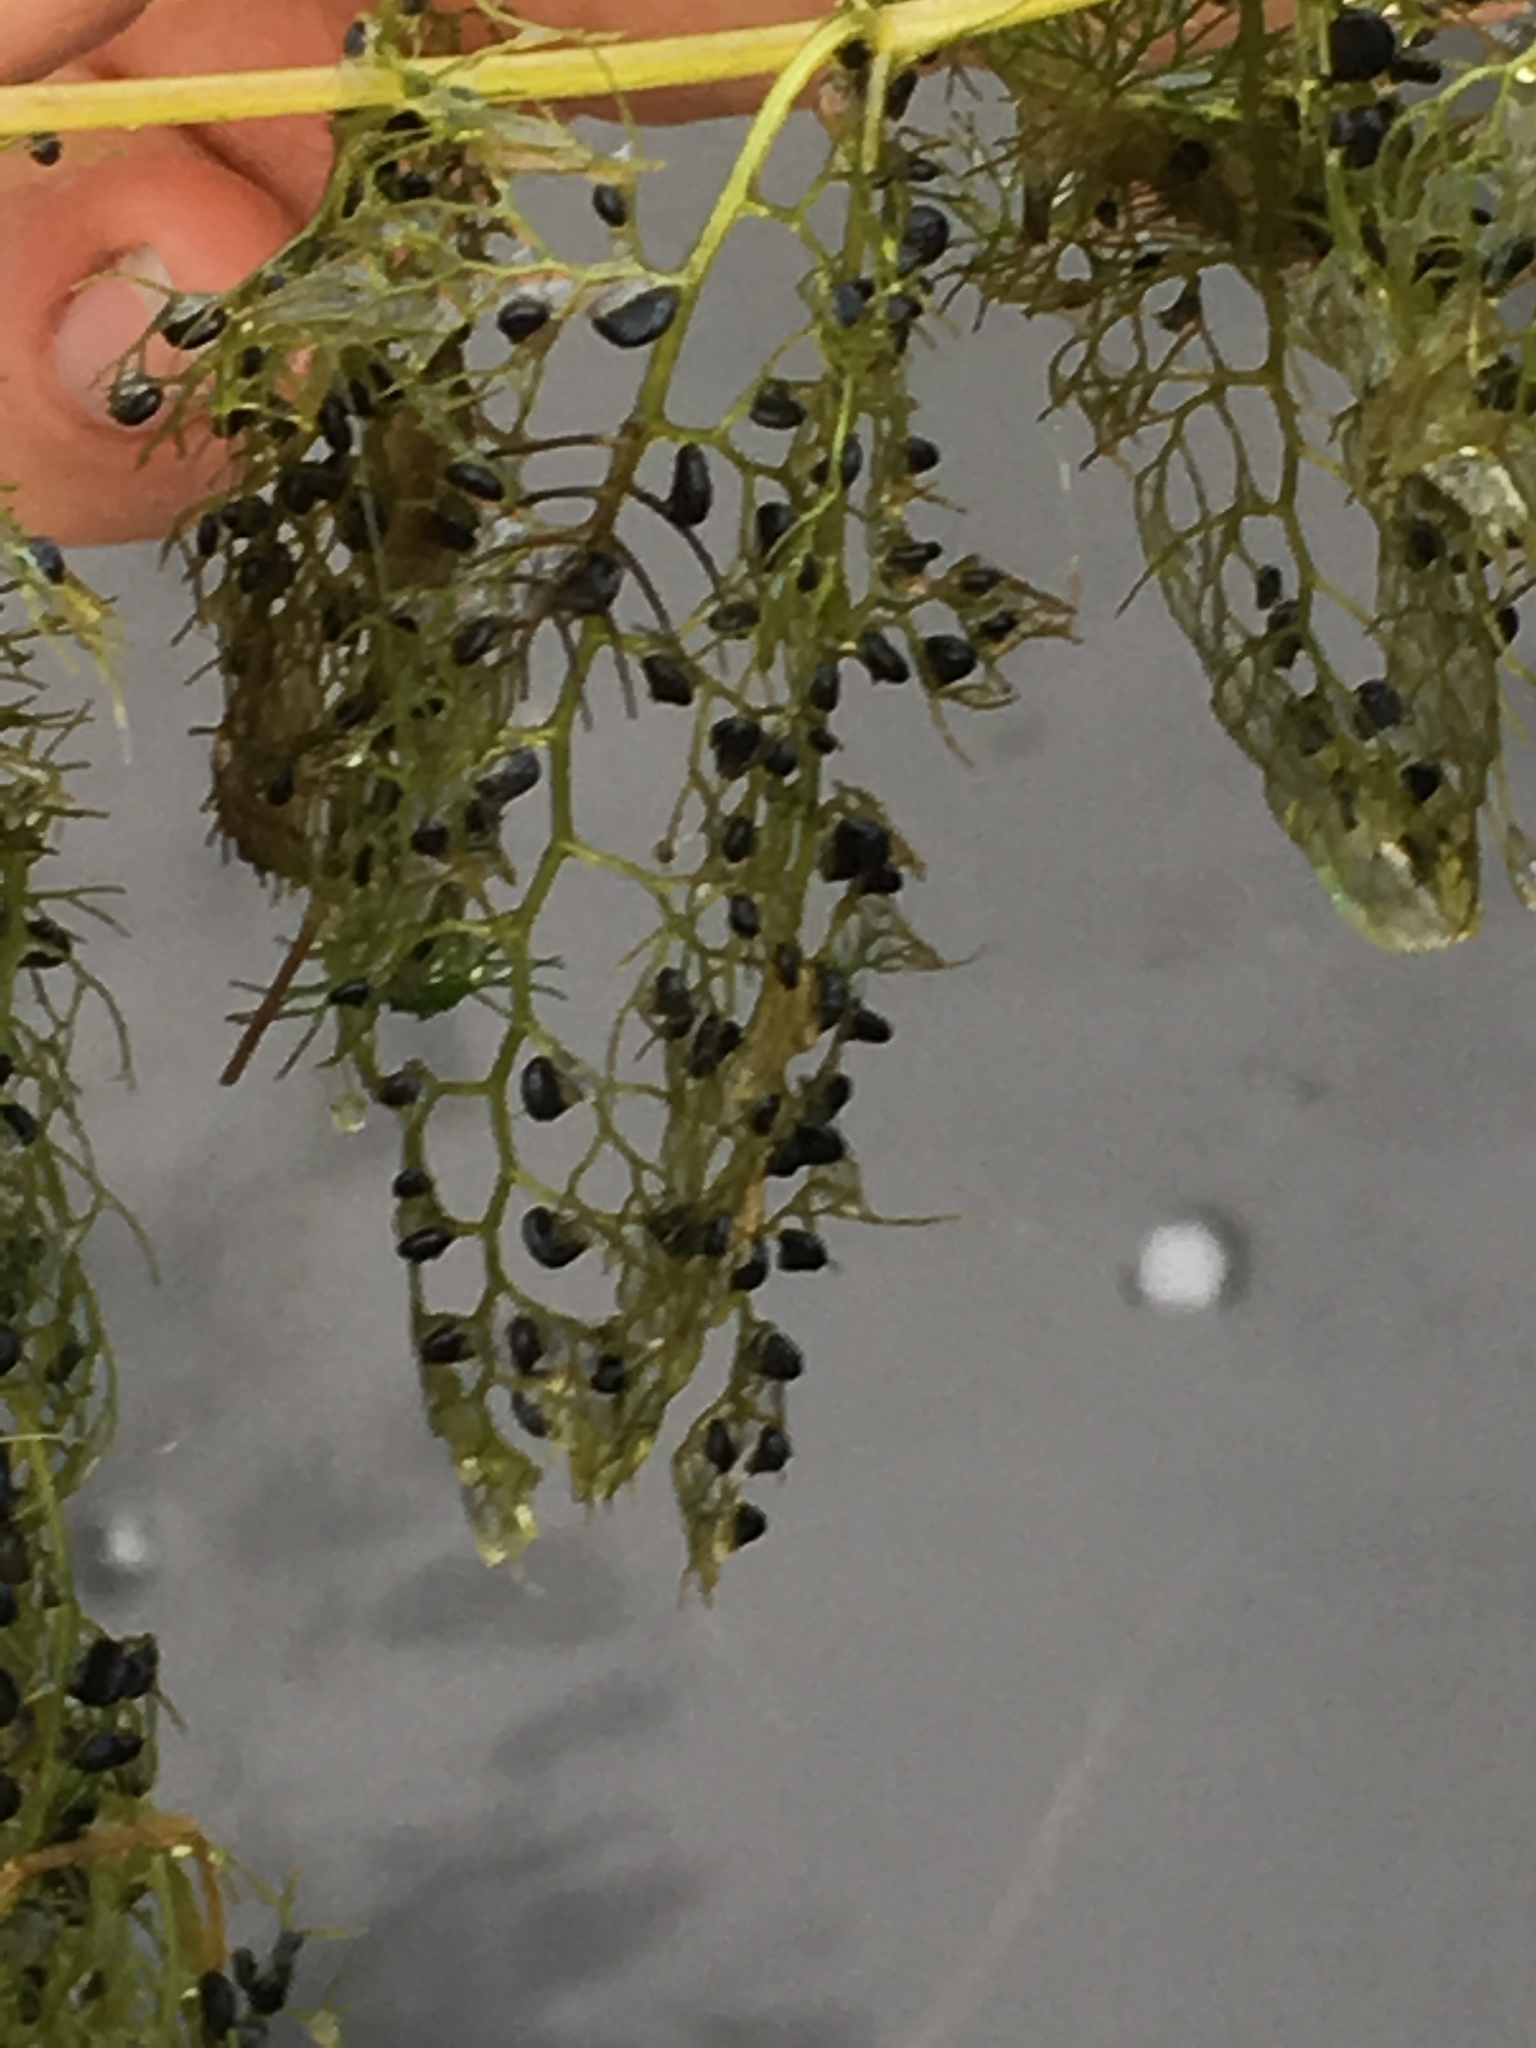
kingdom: Plantae
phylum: Tracheophyta
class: Magnoliopsida
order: Lamiales
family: Lentibulariaceae
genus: Utricularia
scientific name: Utricularia macrorhiza
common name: Common bladderwort
